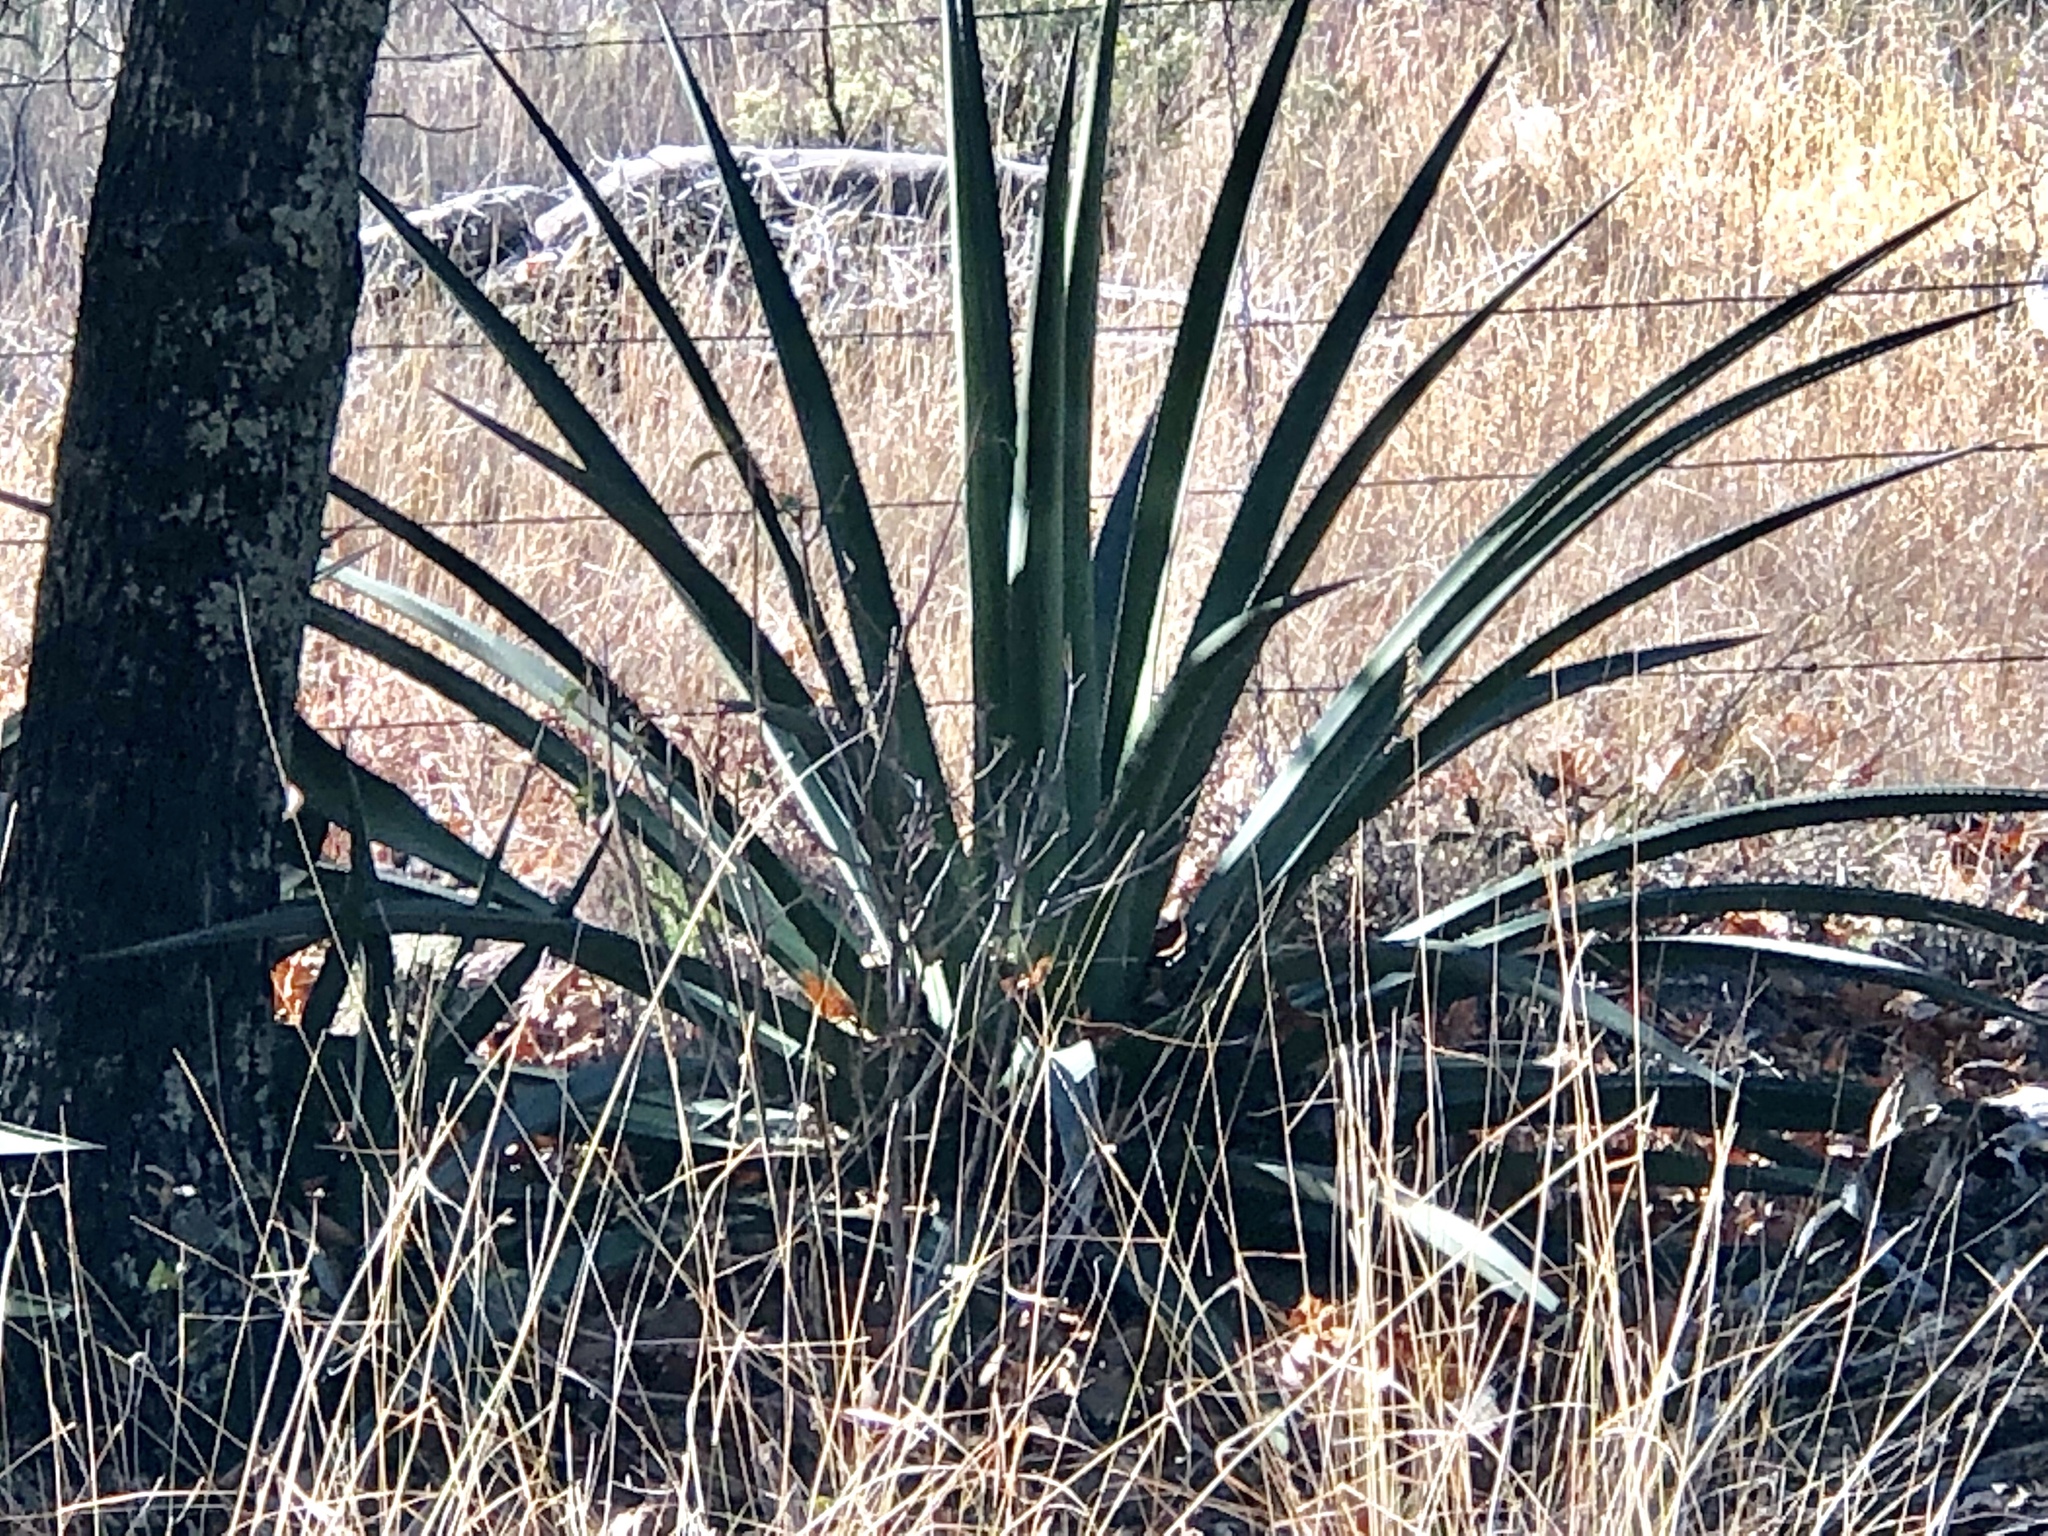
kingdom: Plantae
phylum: Tracheophyta
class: Liliopsida
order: Asparagales
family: Asparagaceae
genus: Agave
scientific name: Agave palmeri
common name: Palmer agave
